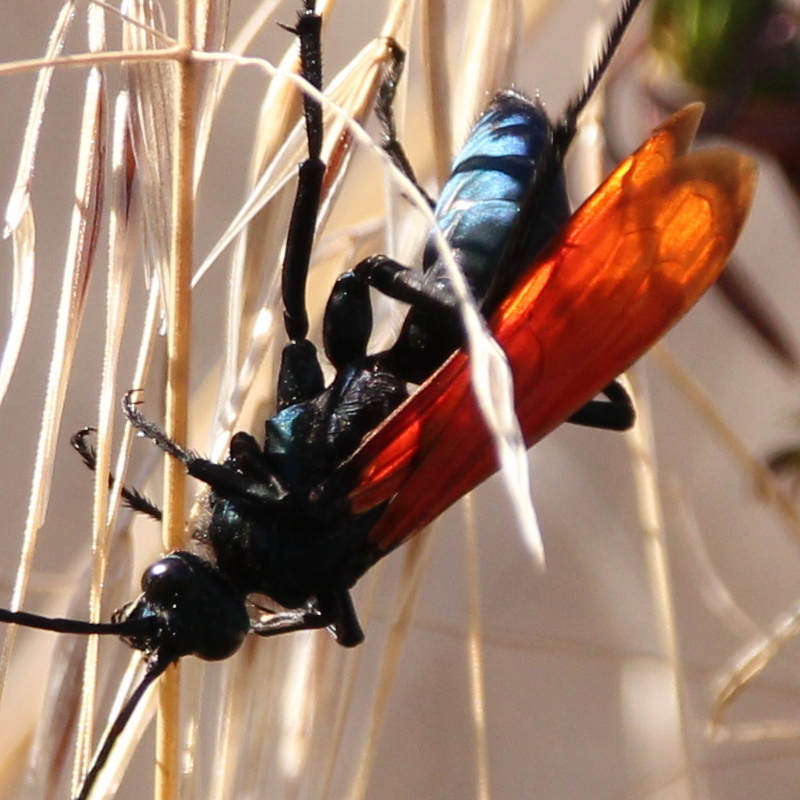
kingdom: Animalia
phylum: Arthropoda
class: Insecta
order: Hymenoptera
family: Pompilidae
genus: Pepsis
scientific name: Pepsis thisbe
